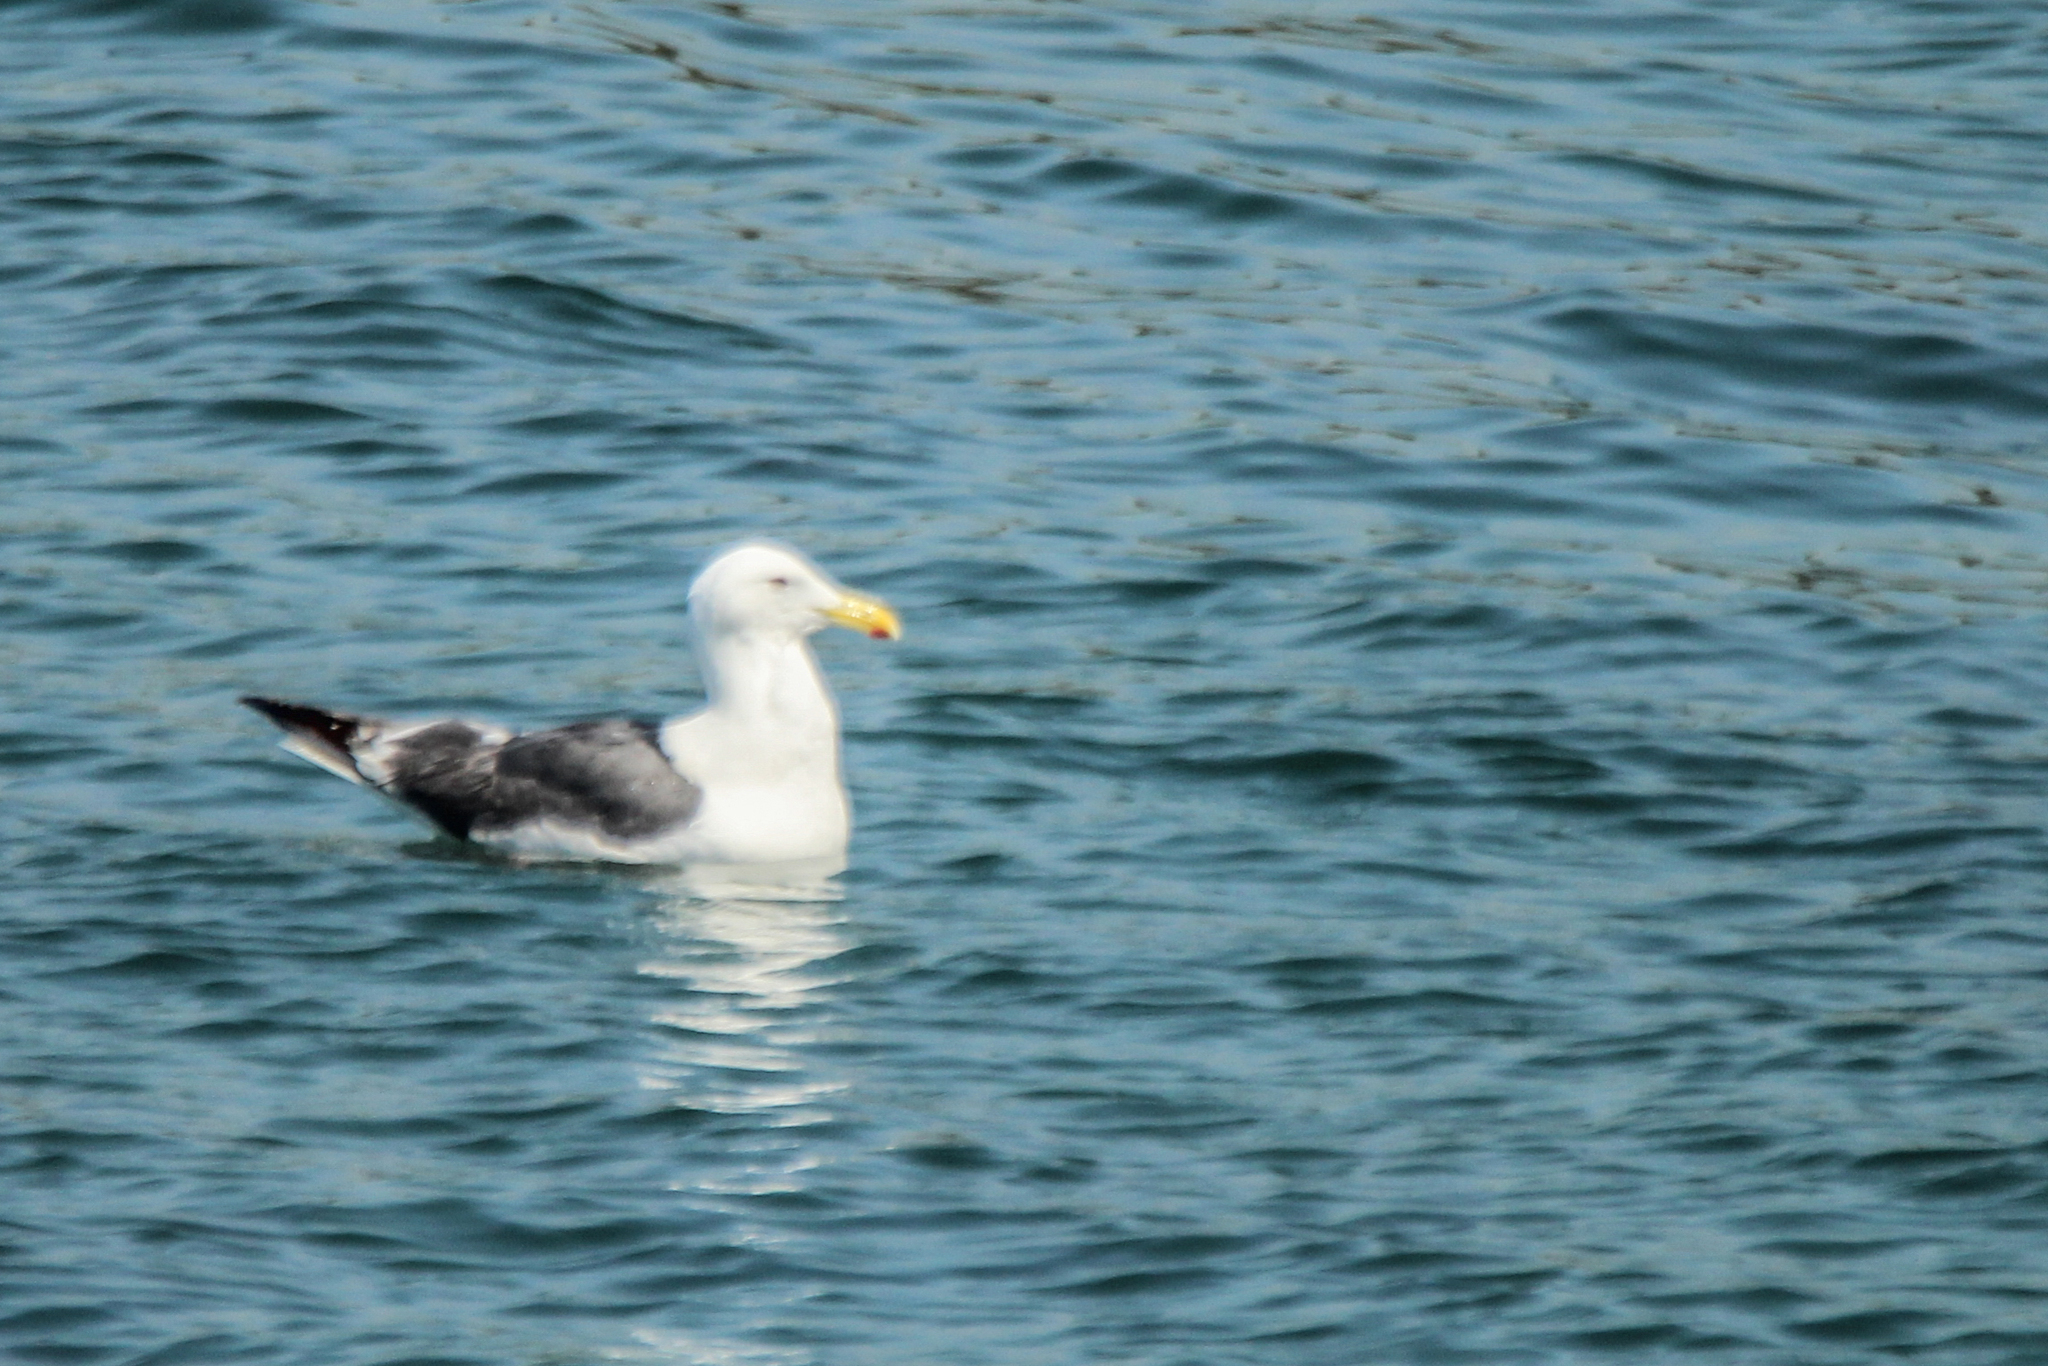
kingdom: Animalia
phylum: Chordata
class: Aves
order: Charadriiformes
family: Laridae
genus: Larus
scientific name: Larus schistisagus
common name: Slaty-backed gull
